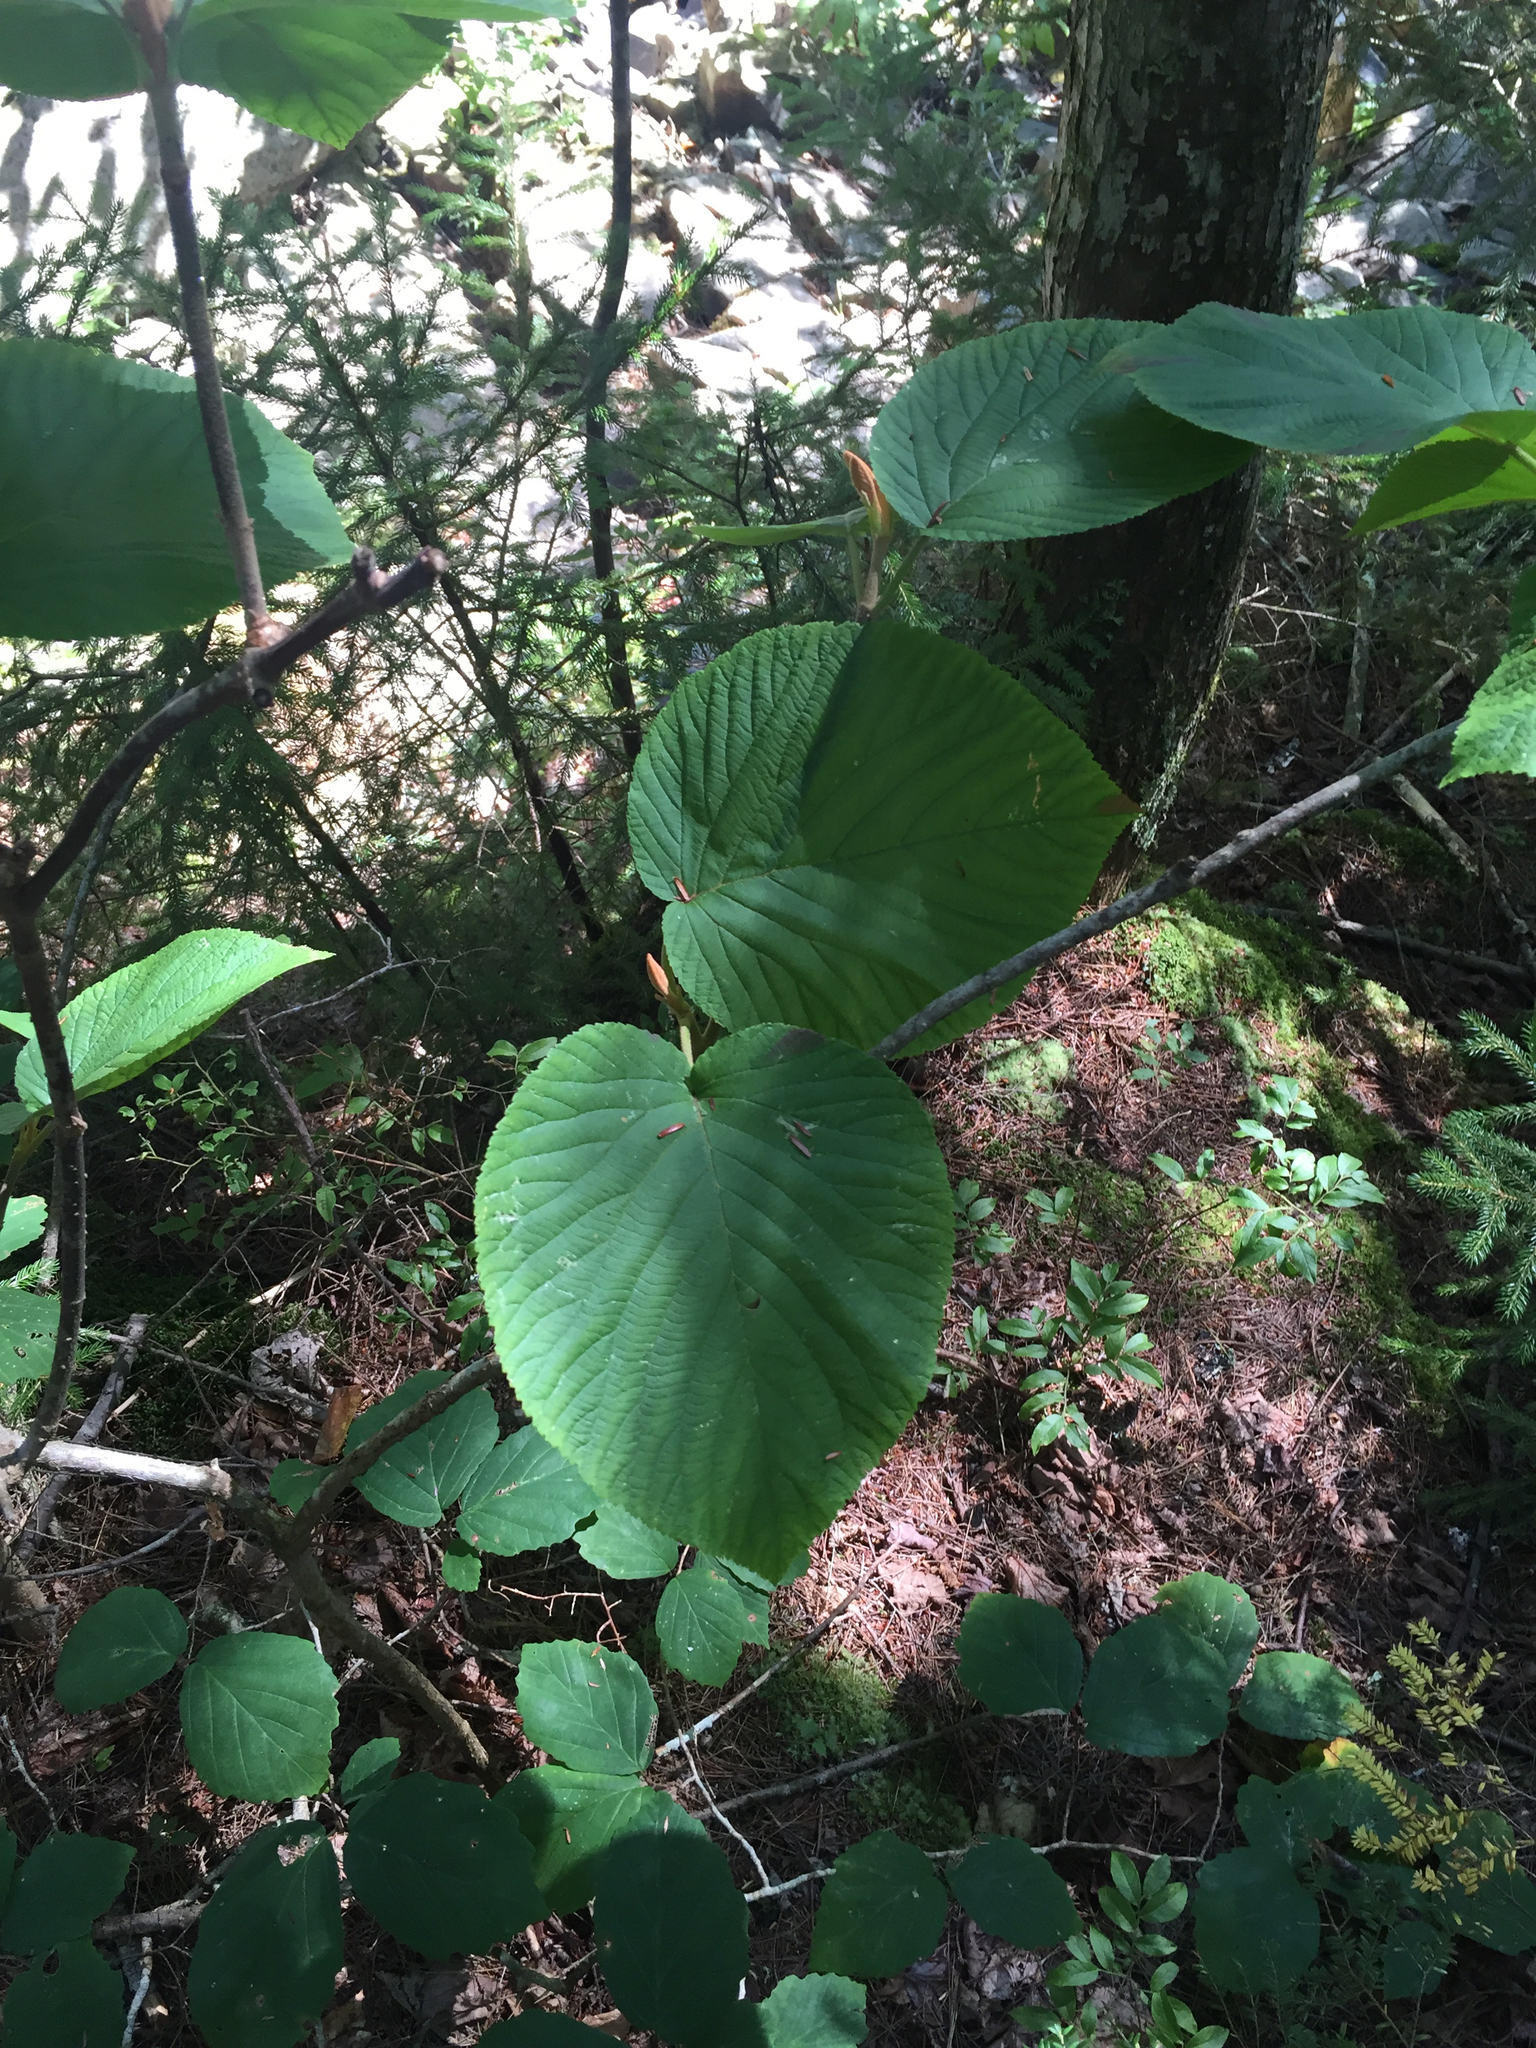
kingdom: Plantae
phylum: Tracheophyta
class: Magnoliopsida
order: Dipsacales
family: Viburnaceae
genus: Viburnum
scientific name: Viburnum lantanoides
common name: Hobblebush
